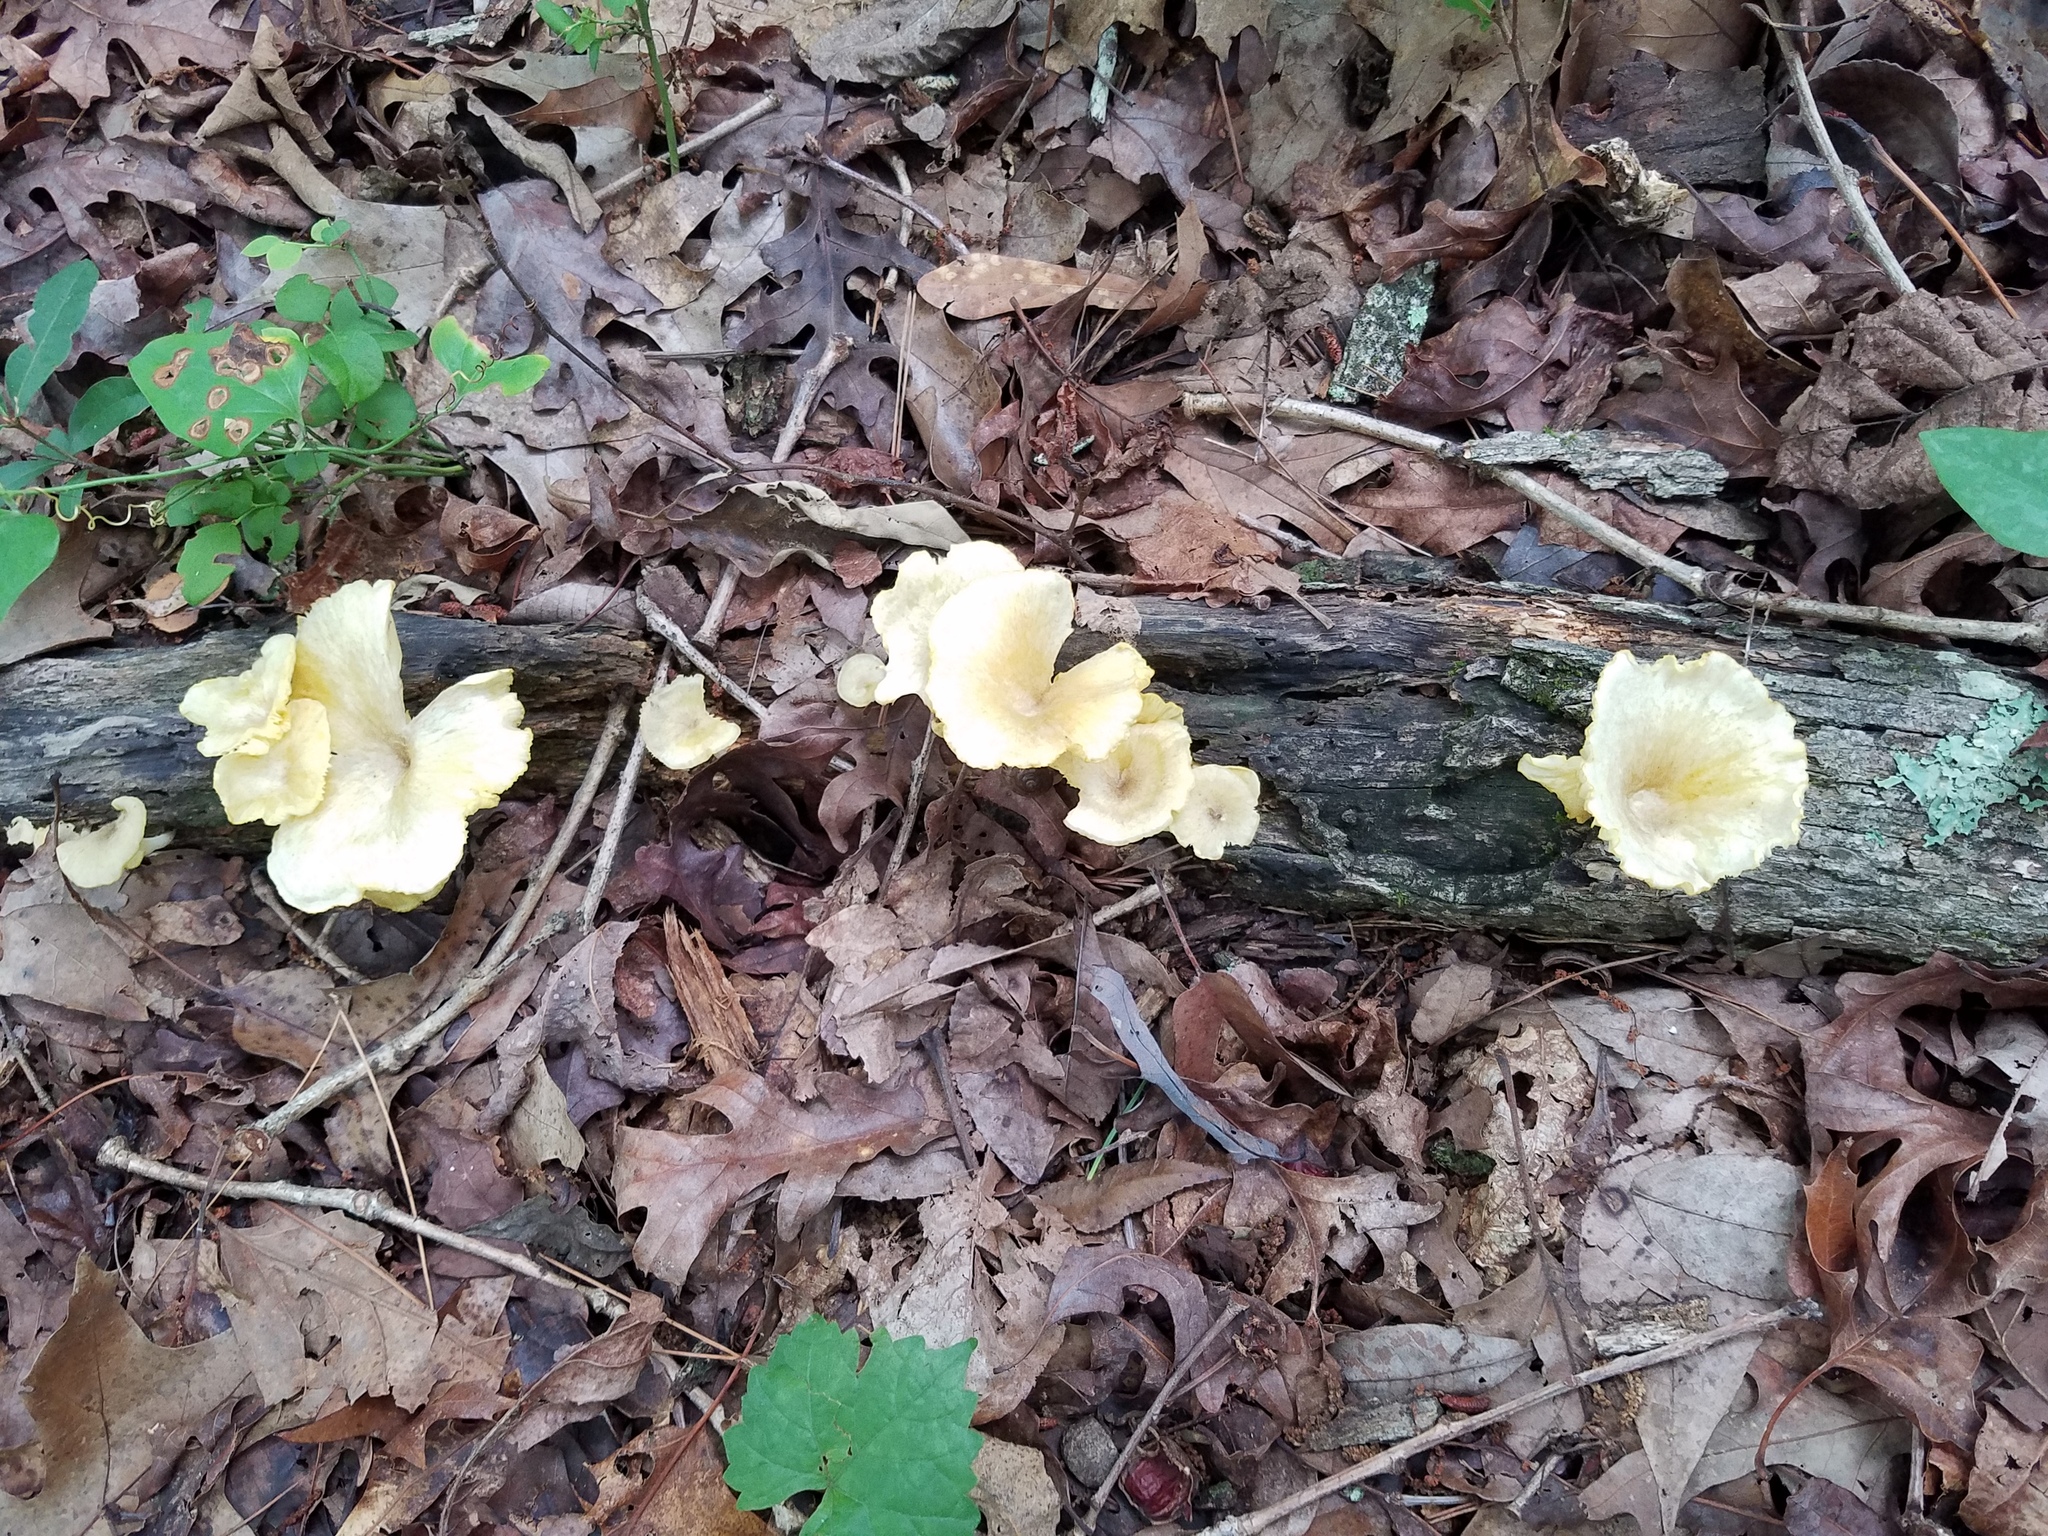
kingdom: Fungi
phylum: Basidiomycota
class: Agaricomycetes
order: Agaricales
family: Marasmiaceae
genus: Gerronema
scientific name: Gerronema strombodes
